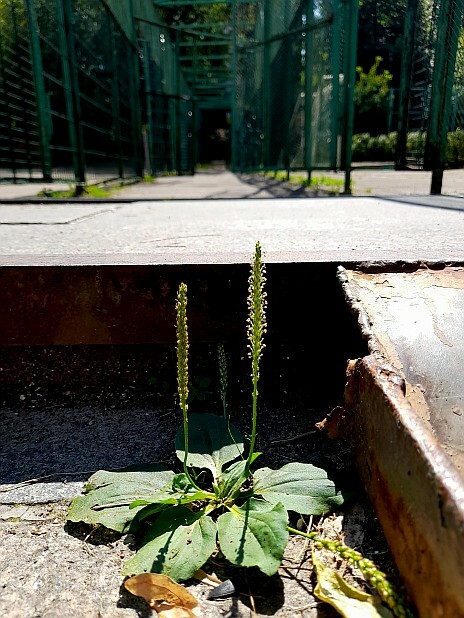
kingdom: Plantae
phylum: Tracheophyta
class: Magnoliopsida
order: Lamiales
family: Plantaginaceae
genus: Plantago
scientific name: Plantago major
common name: Common plantain
